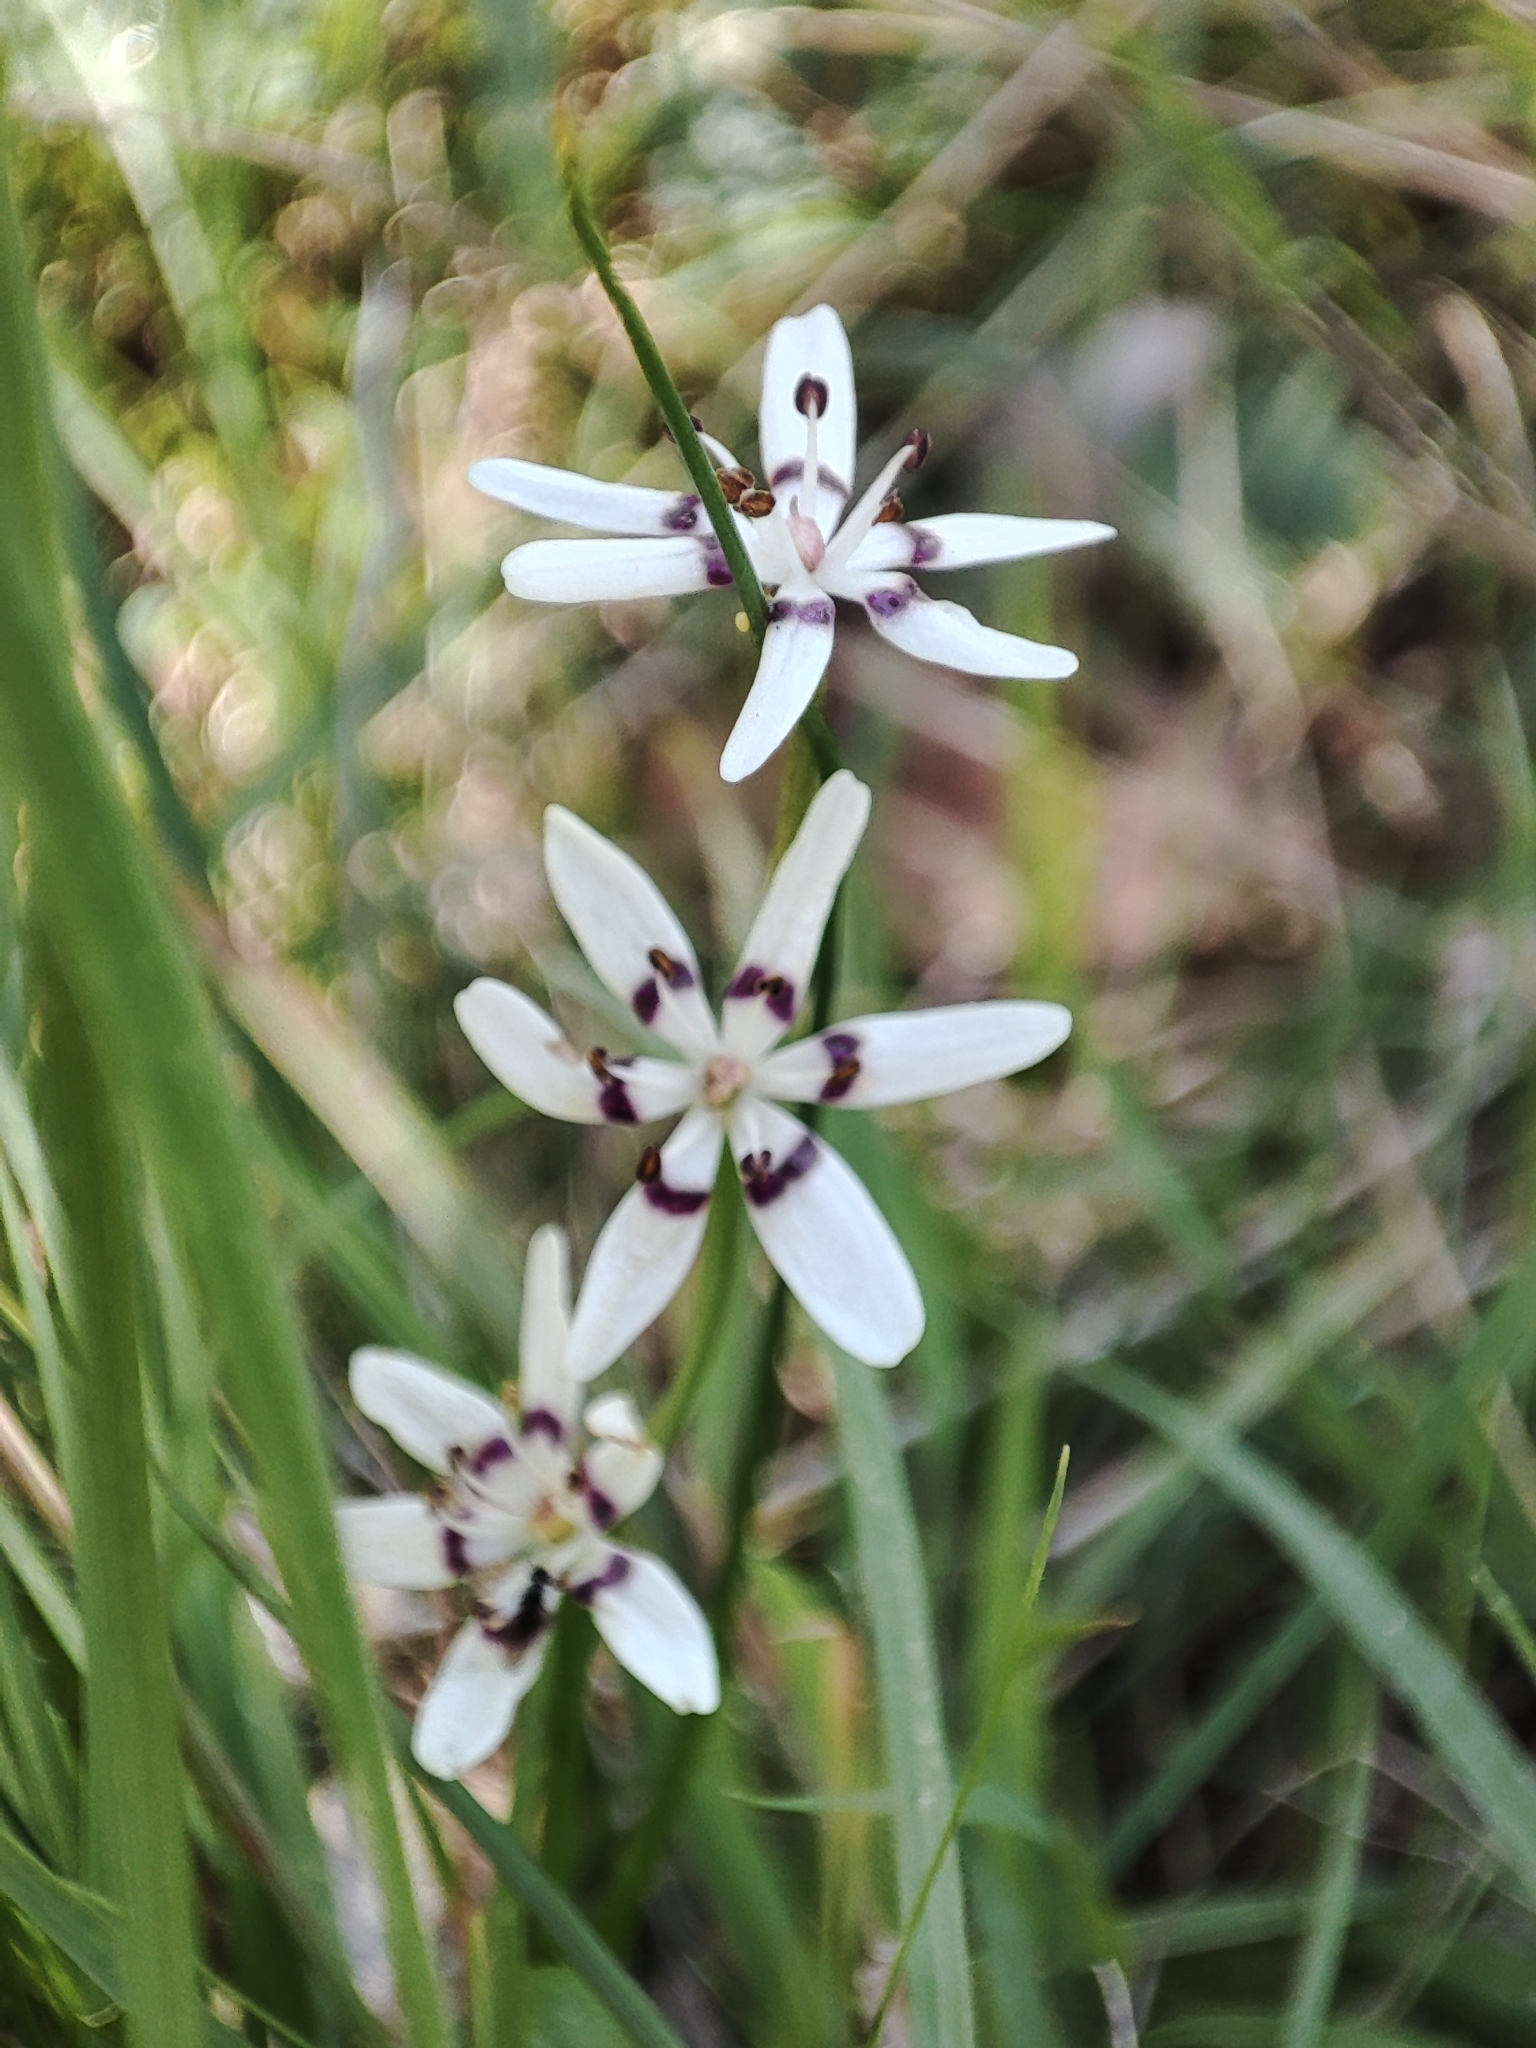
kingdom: Plantae
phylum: Tracheophyta
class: Liliopsida
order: Liliales
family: Colchicaceae
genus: Wurmbea
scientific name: Wurmbea dioica
